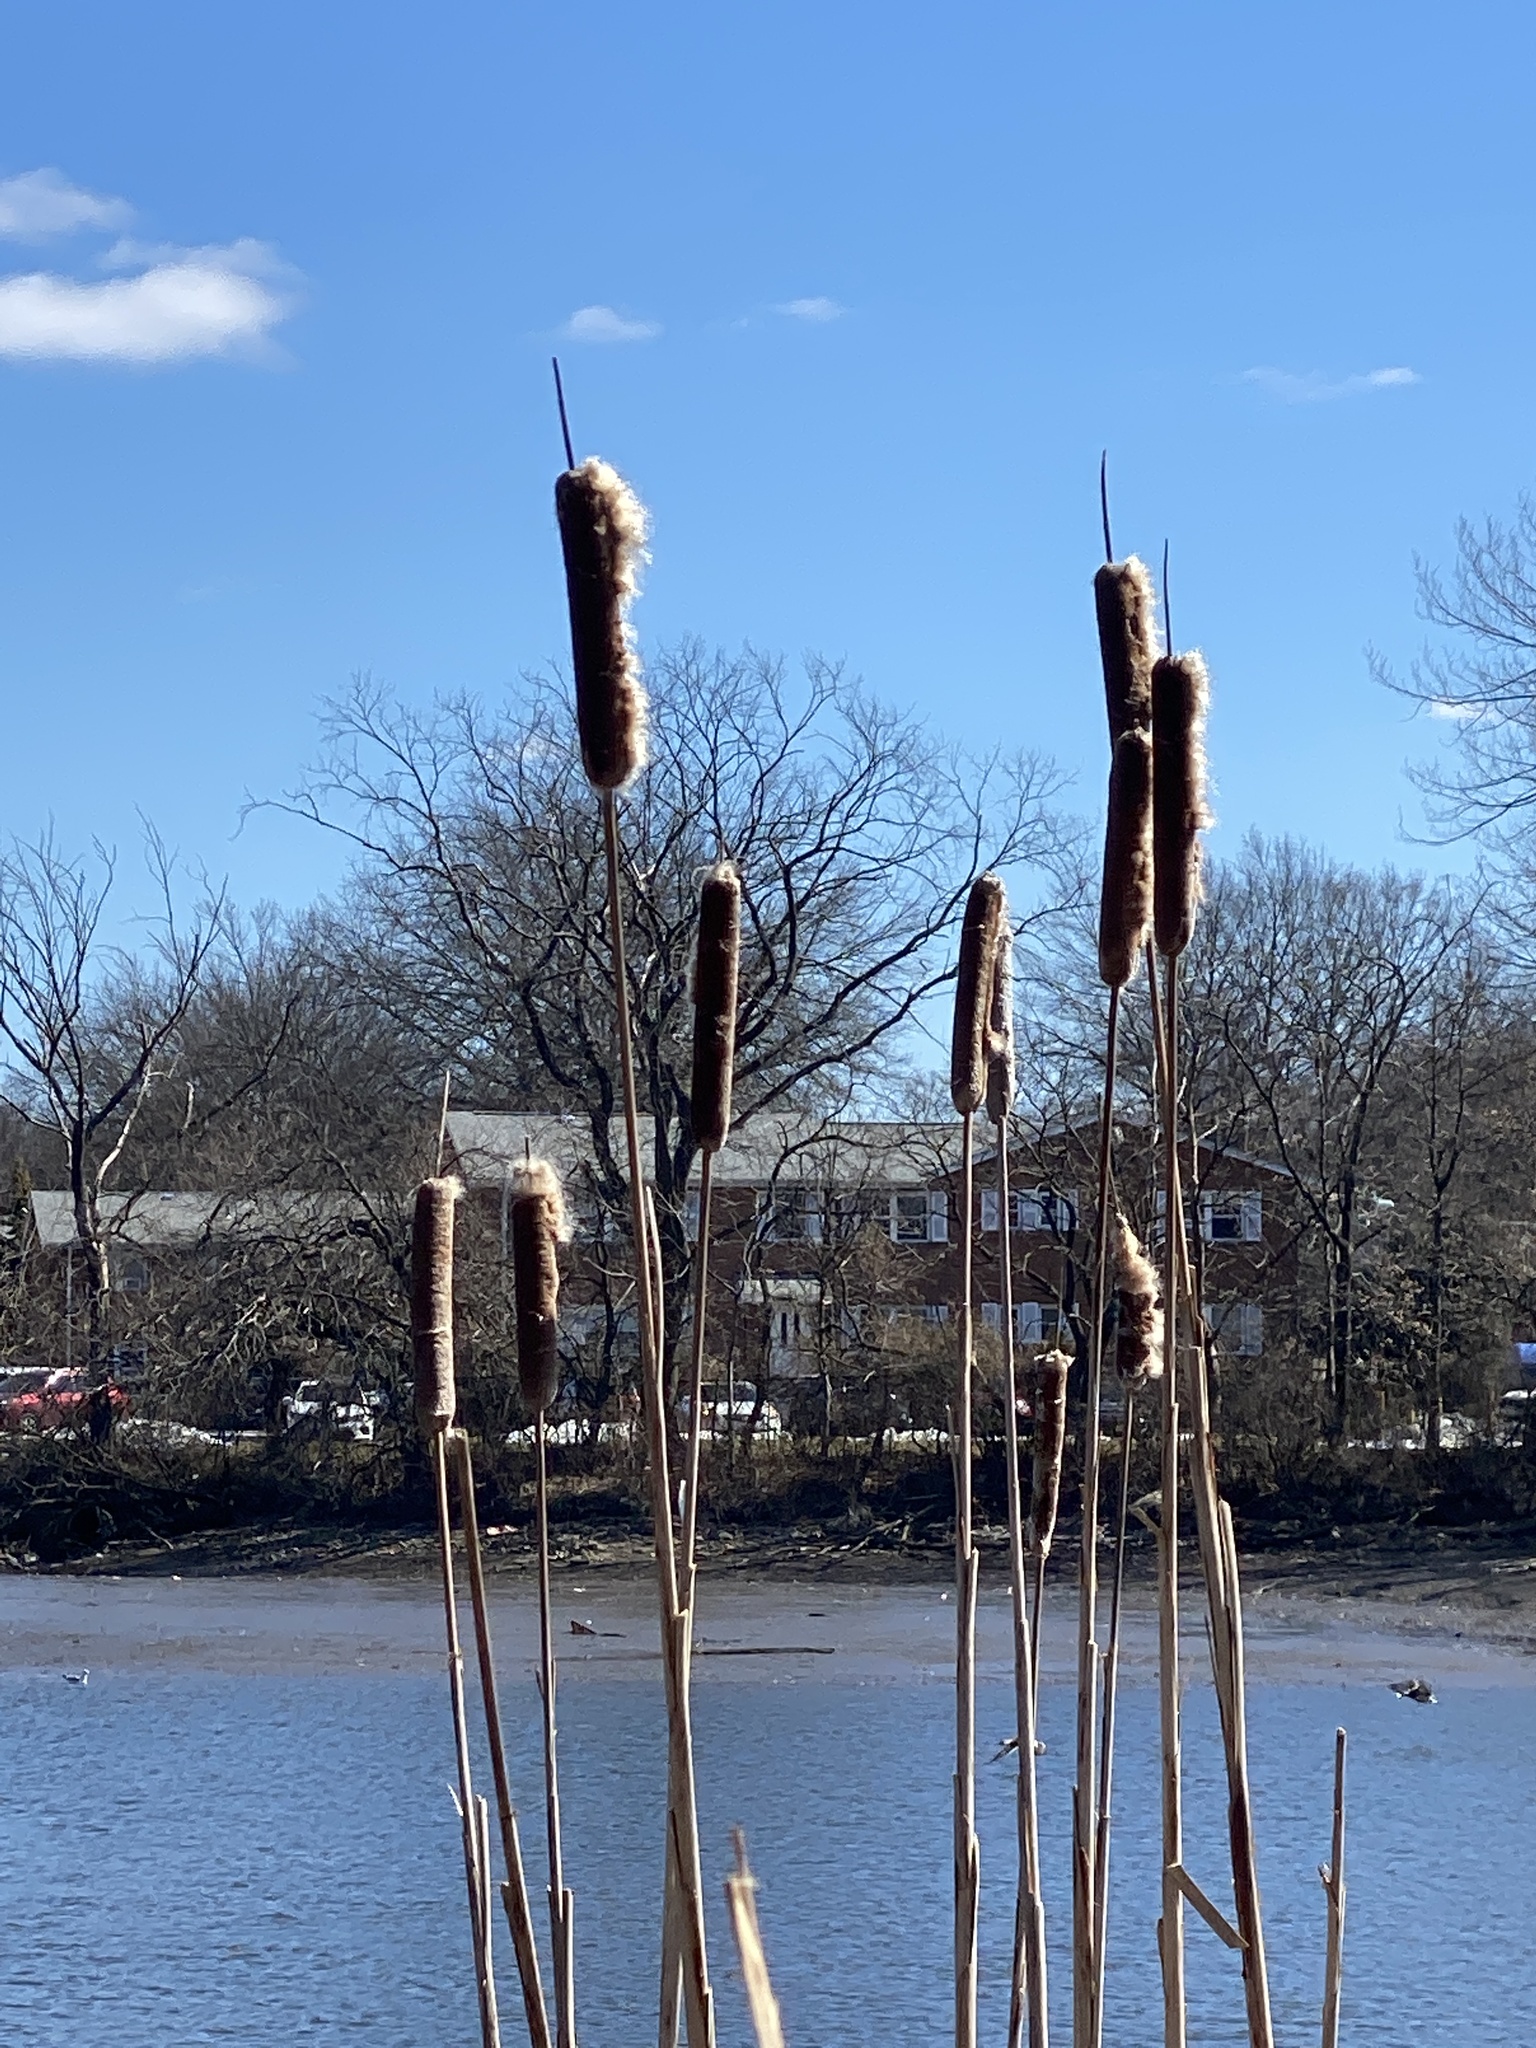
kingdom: Plantae
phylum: Tracheophyta
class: Liliopsida
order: Poales
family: Typhaceae
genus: Typha
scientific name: Typha
